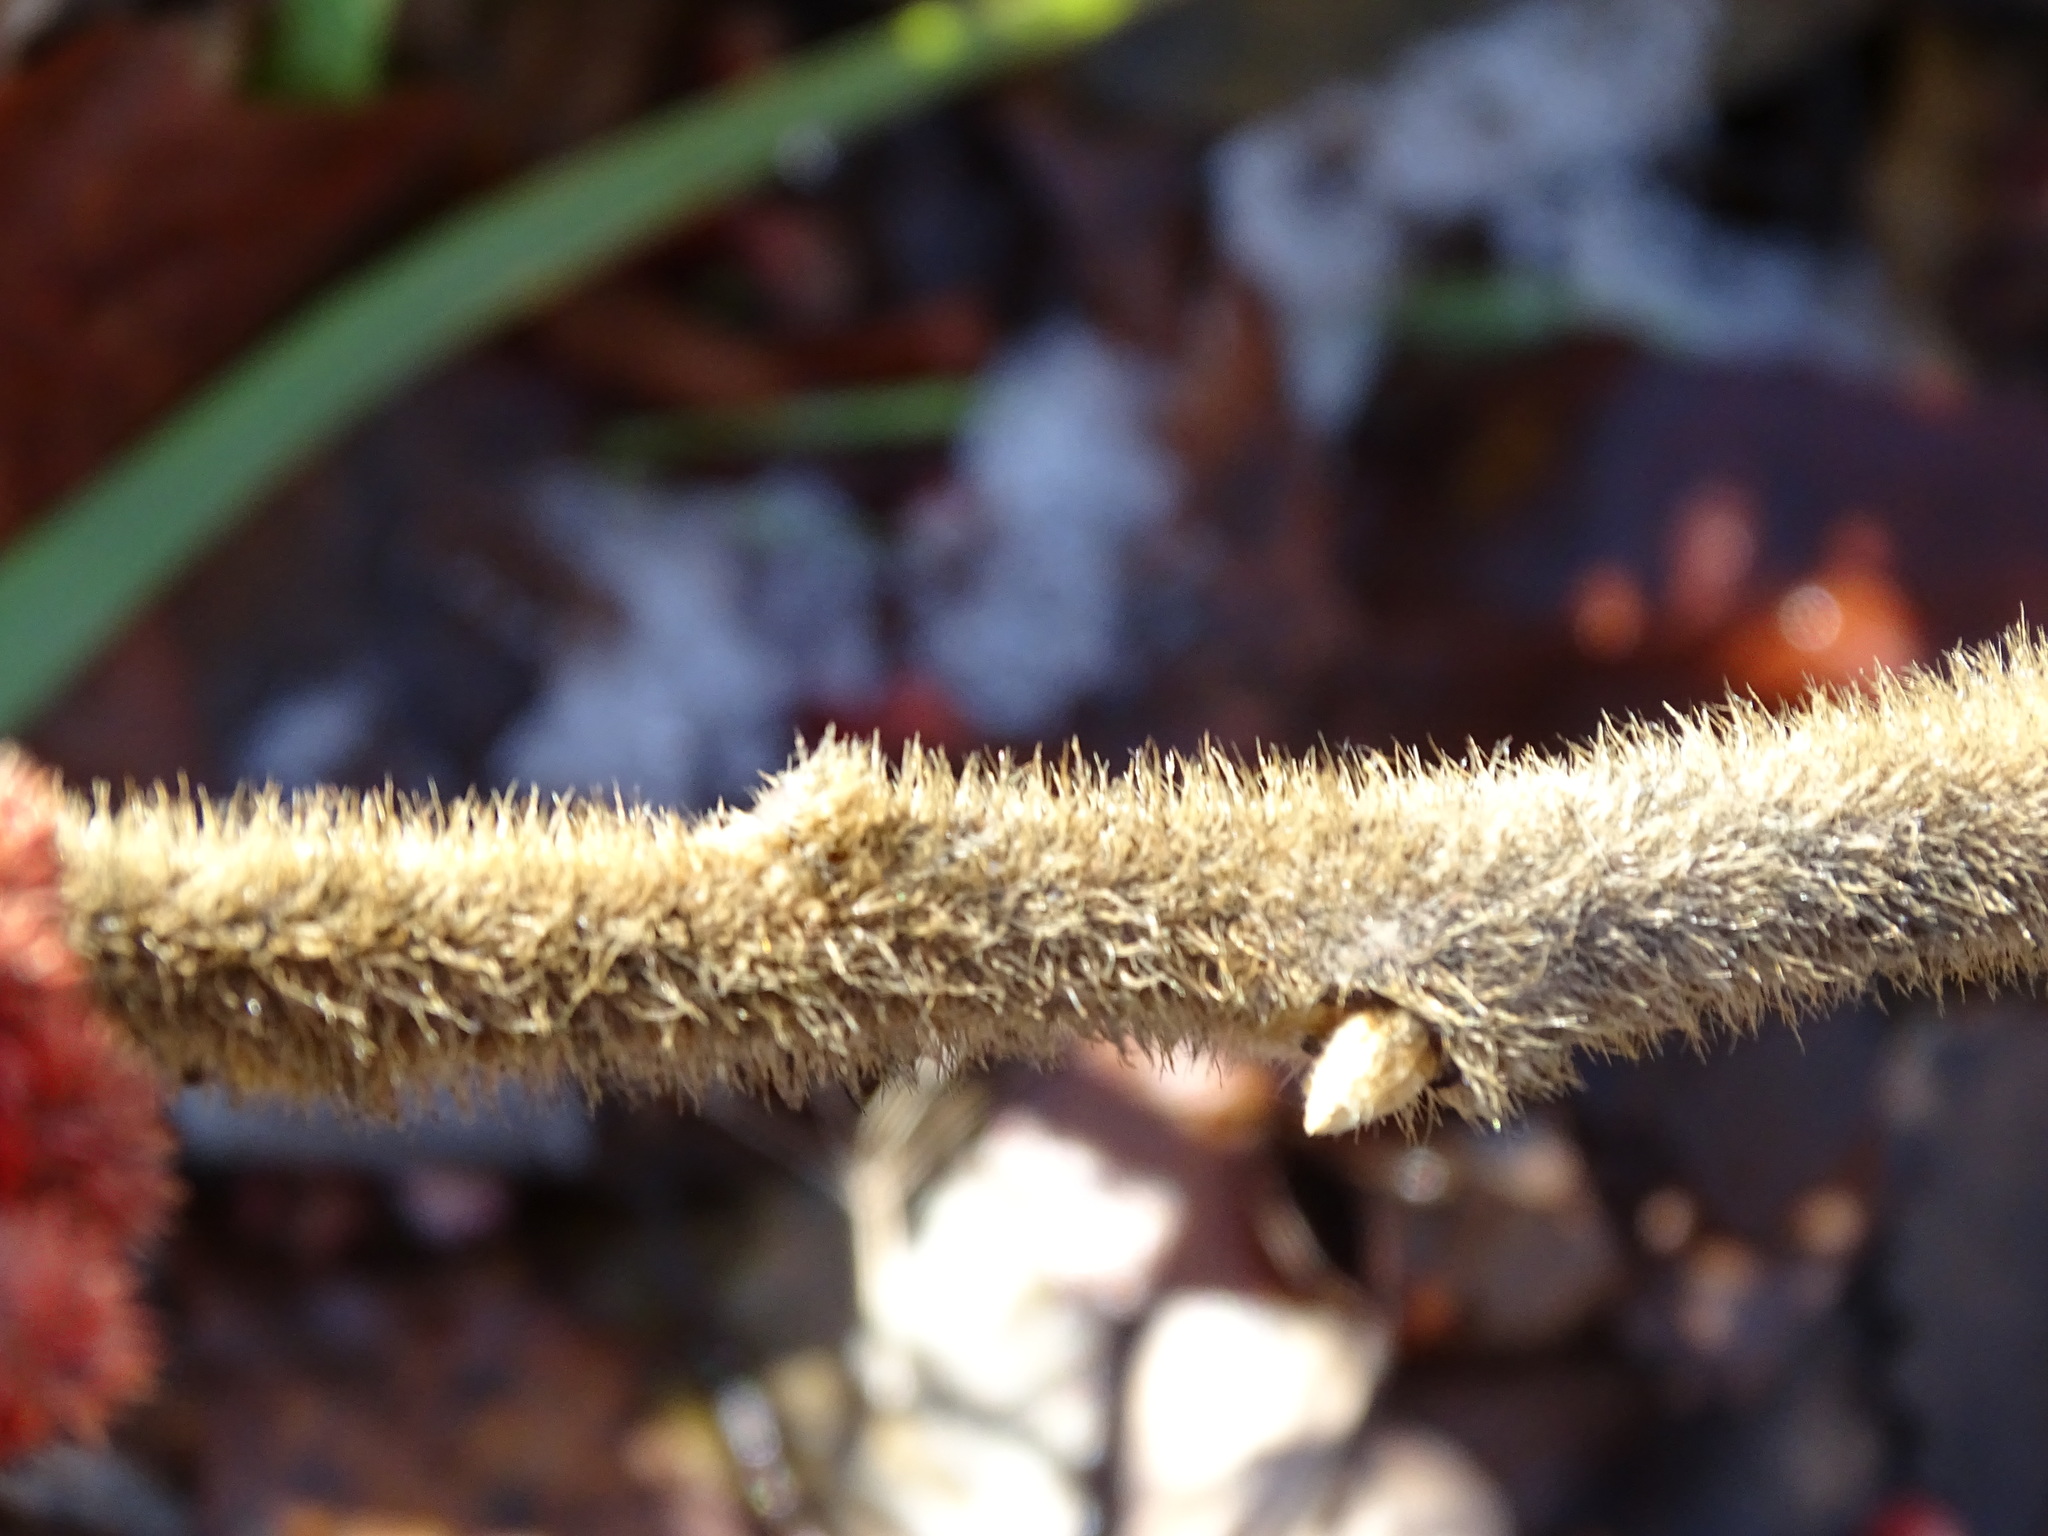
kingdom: Plantae
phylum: Tracheophyta
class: Magnoliopsida
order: Sapindales
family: Anacardiaceae
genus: Rhus
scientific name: Rhus typhina
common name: Staghorn sumac
